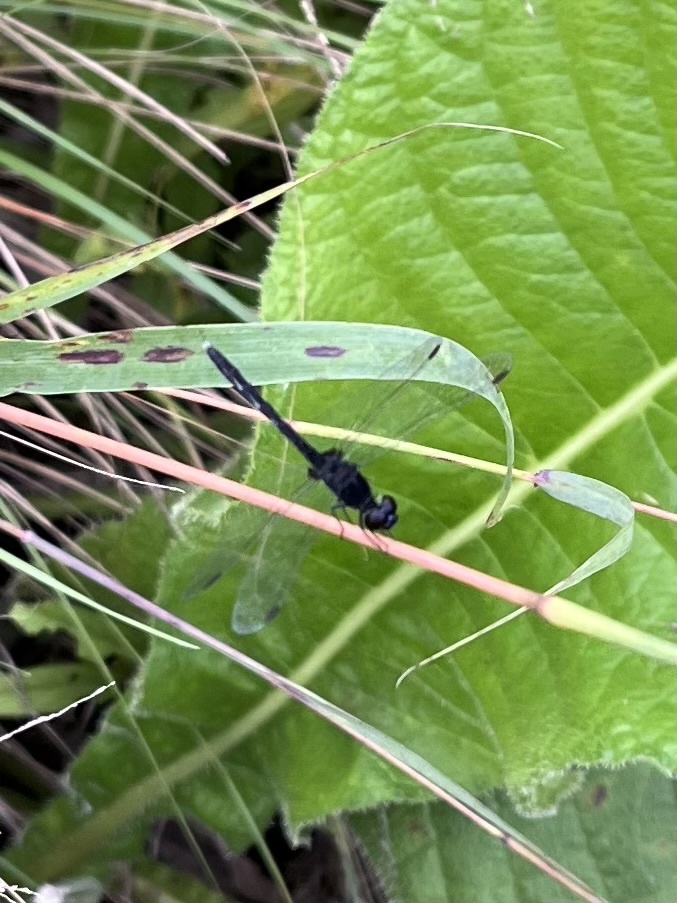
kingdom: Animalia
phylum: Arthropoda
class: Insecta
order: Odonata
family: Libellulidae
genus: Diplacodes
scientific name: Diplacodes lefebvrii
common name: Black percher
